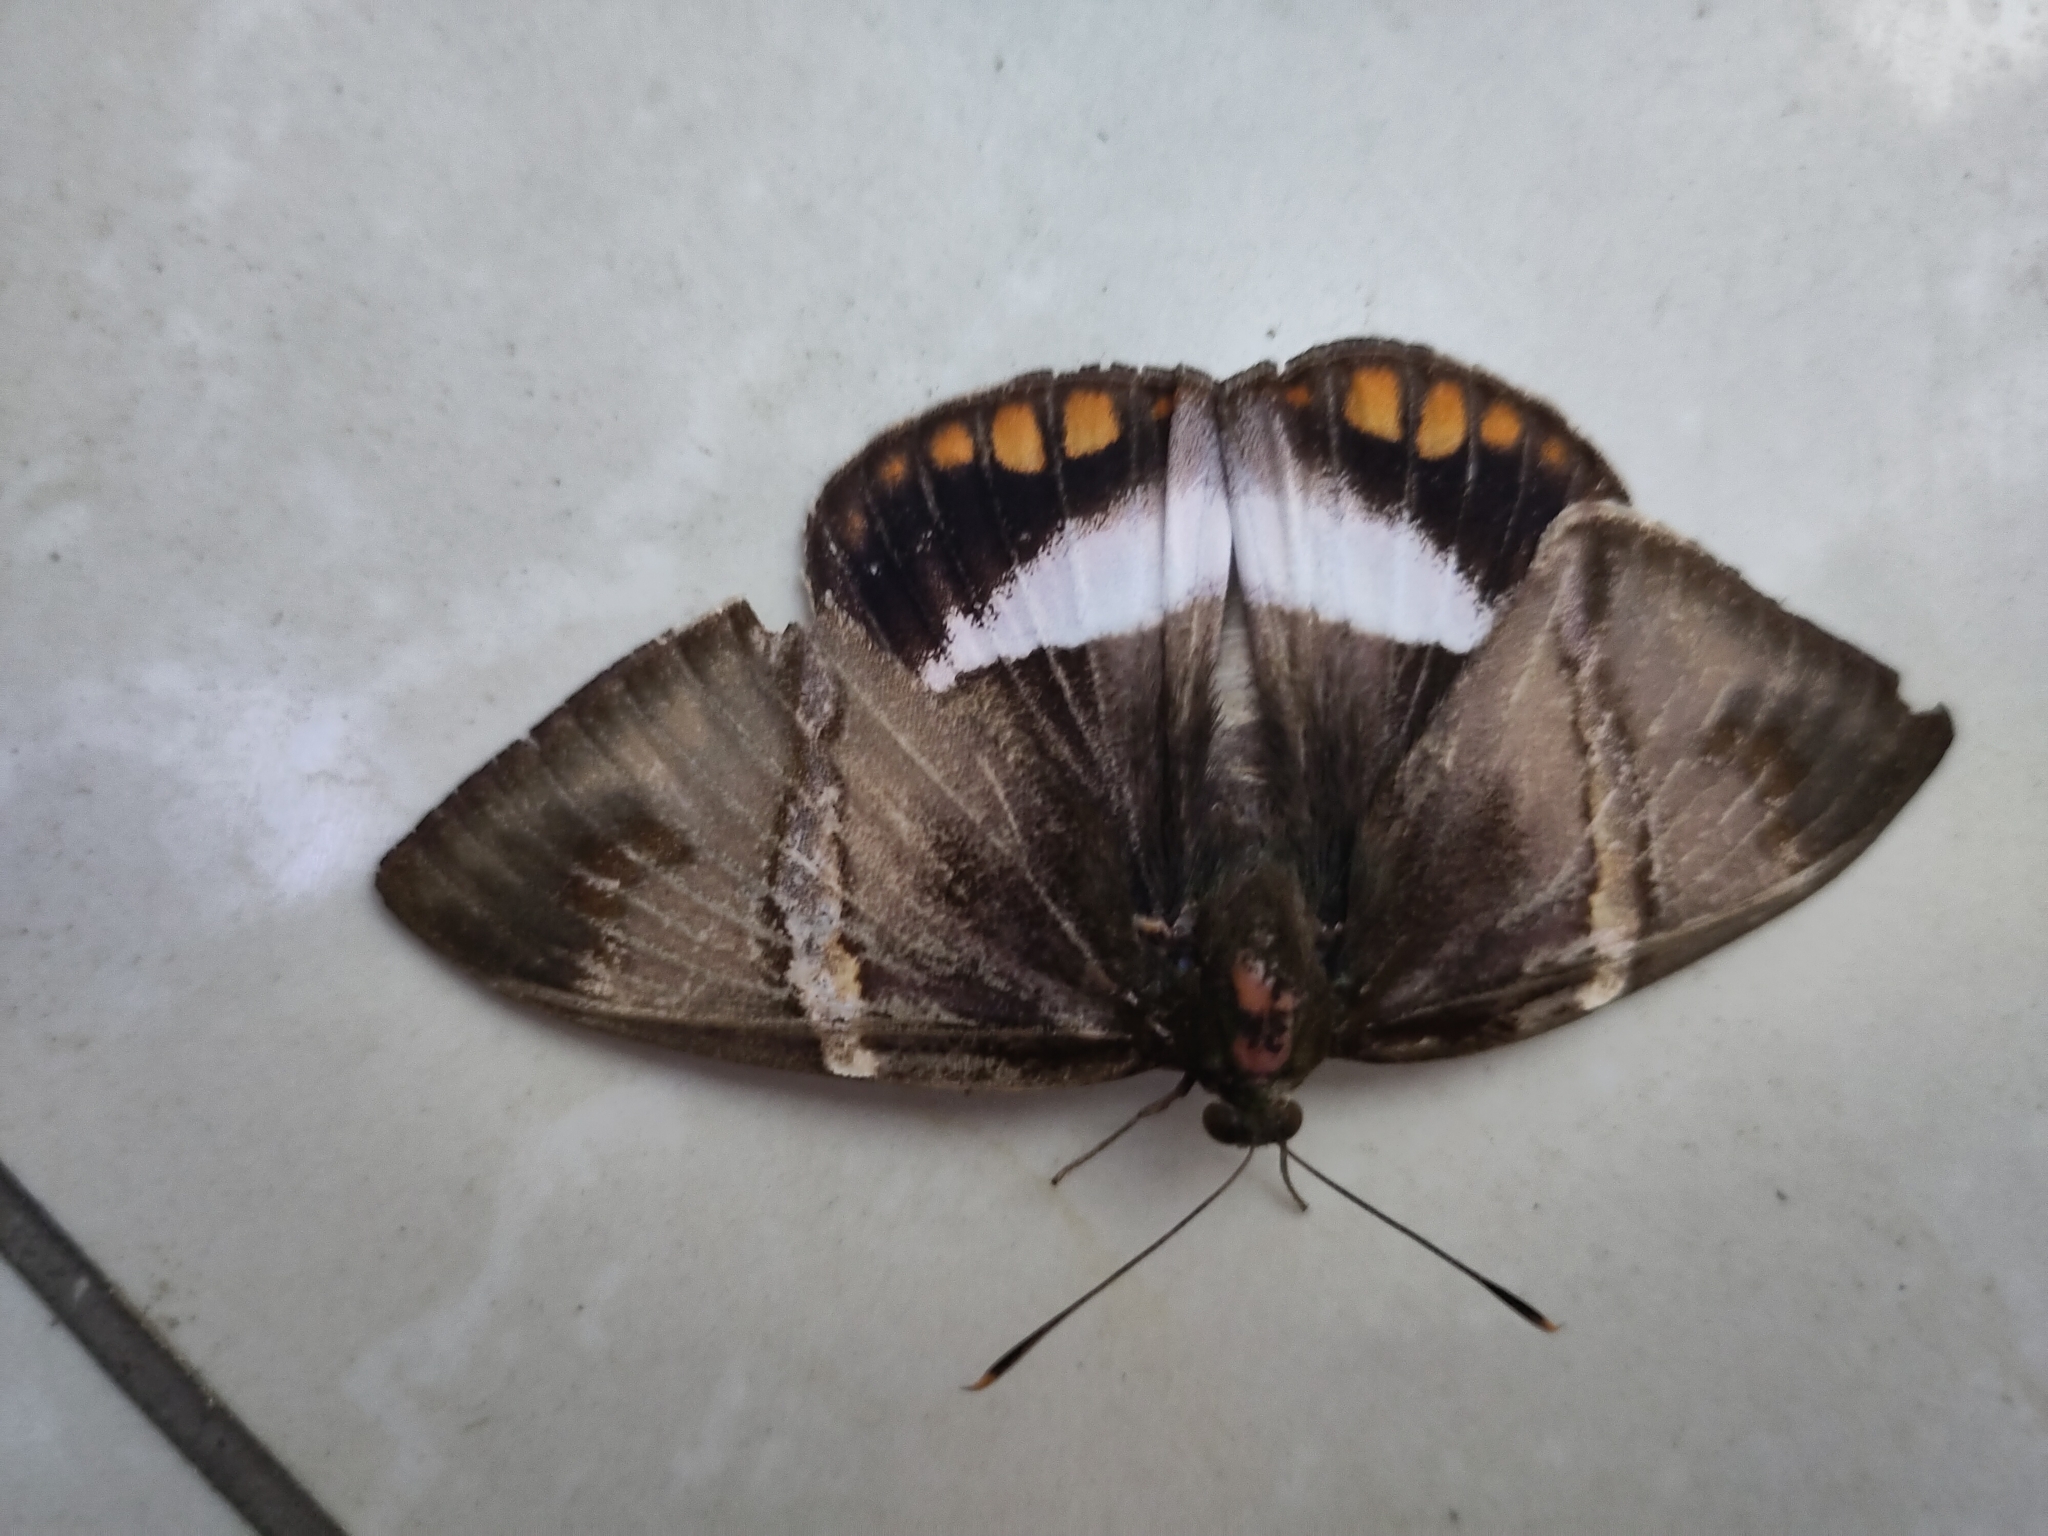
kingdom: Animalia
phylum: Arthropoda
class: Insecta
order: Lepidoptera
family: Castniidae
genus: Castnia
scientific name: Castnia licus
